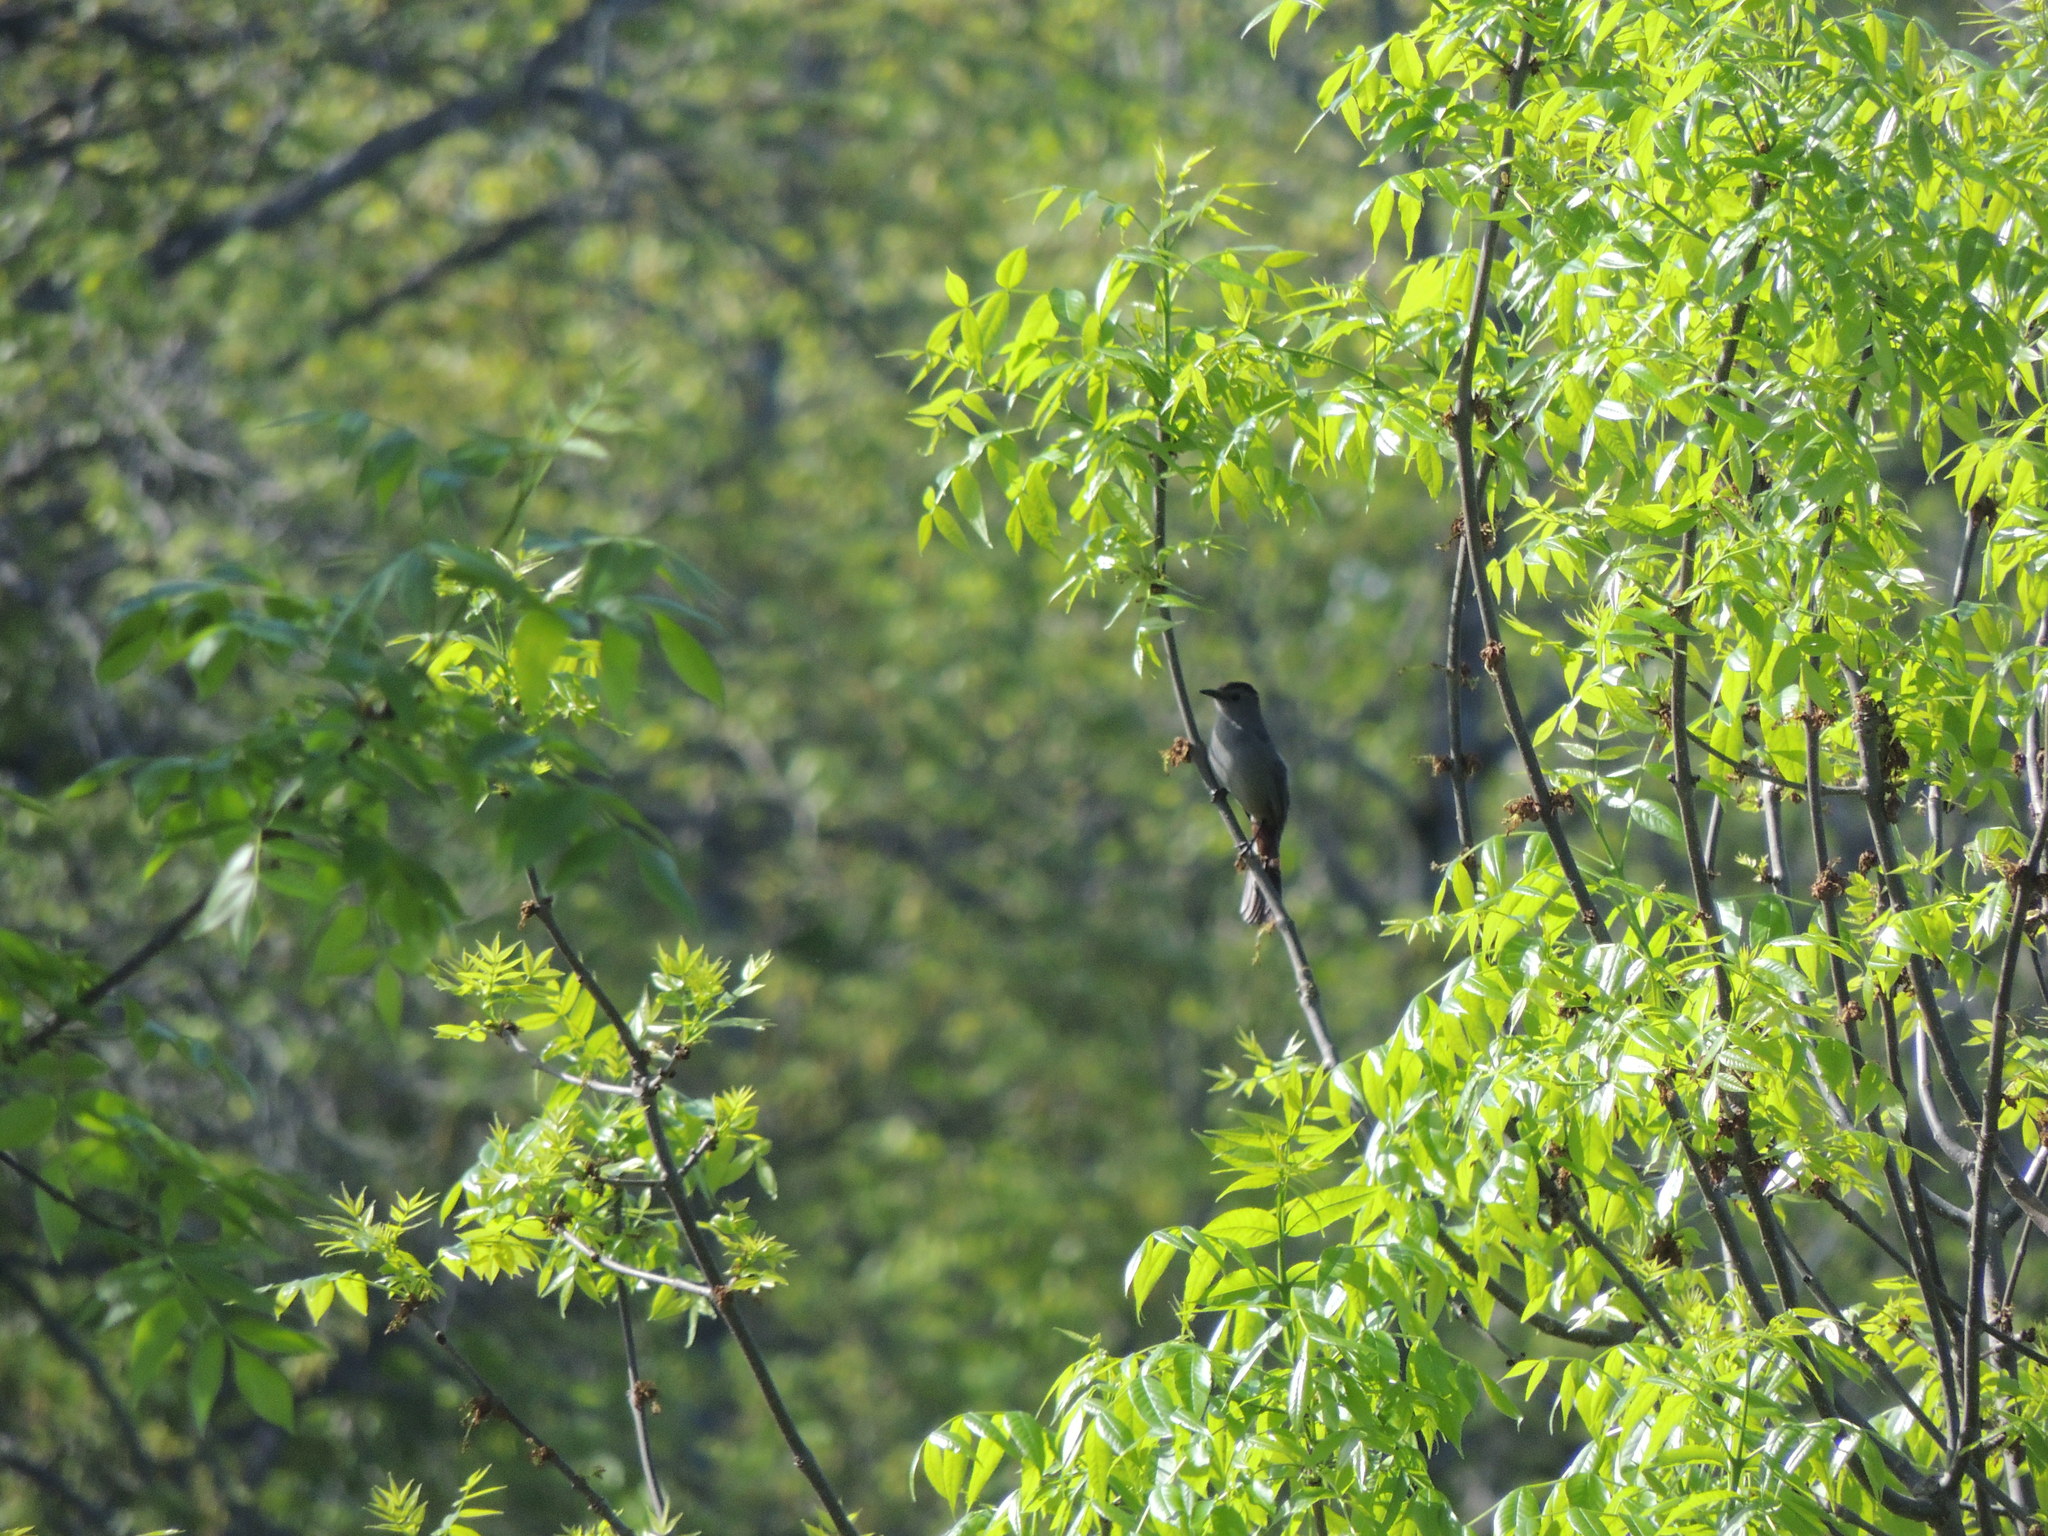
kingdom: Animalia
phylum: Chordata
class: Aves
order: Passeriformes
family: Mimidae
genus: Dumetella
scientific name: Dumetella carolinensis
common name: Gray catbird
